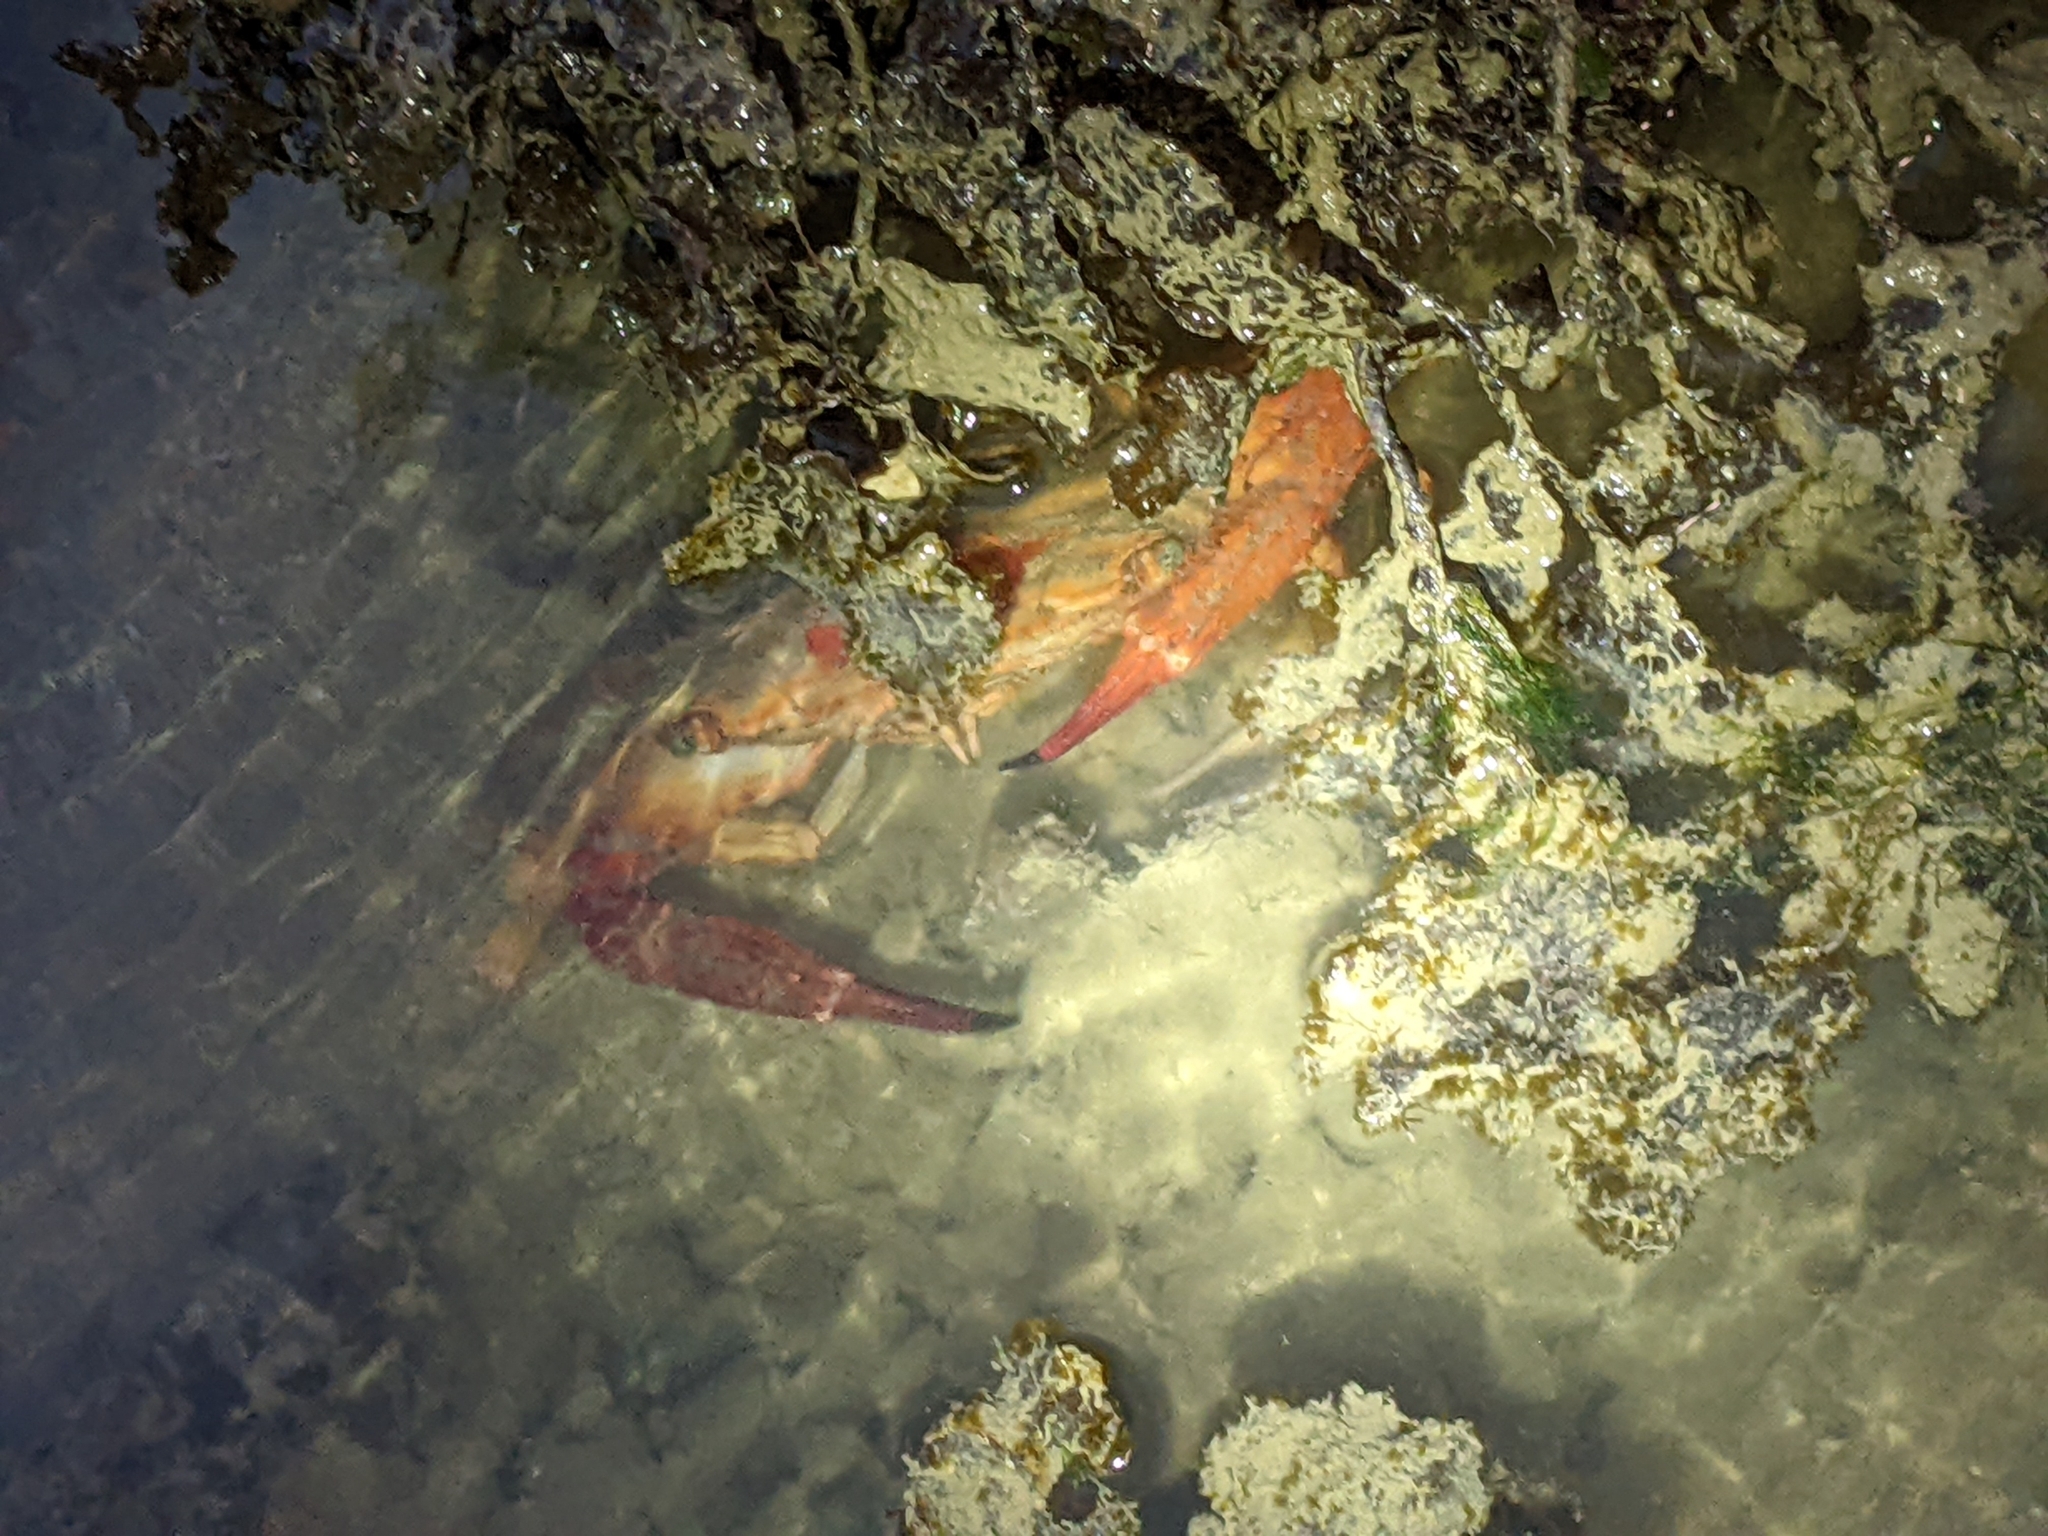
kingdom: Animalia
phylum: Arthropoda
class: Malacostraca
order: Decapoda
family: Portunidae
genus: Thalamita
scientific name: Thalamita spinimana
